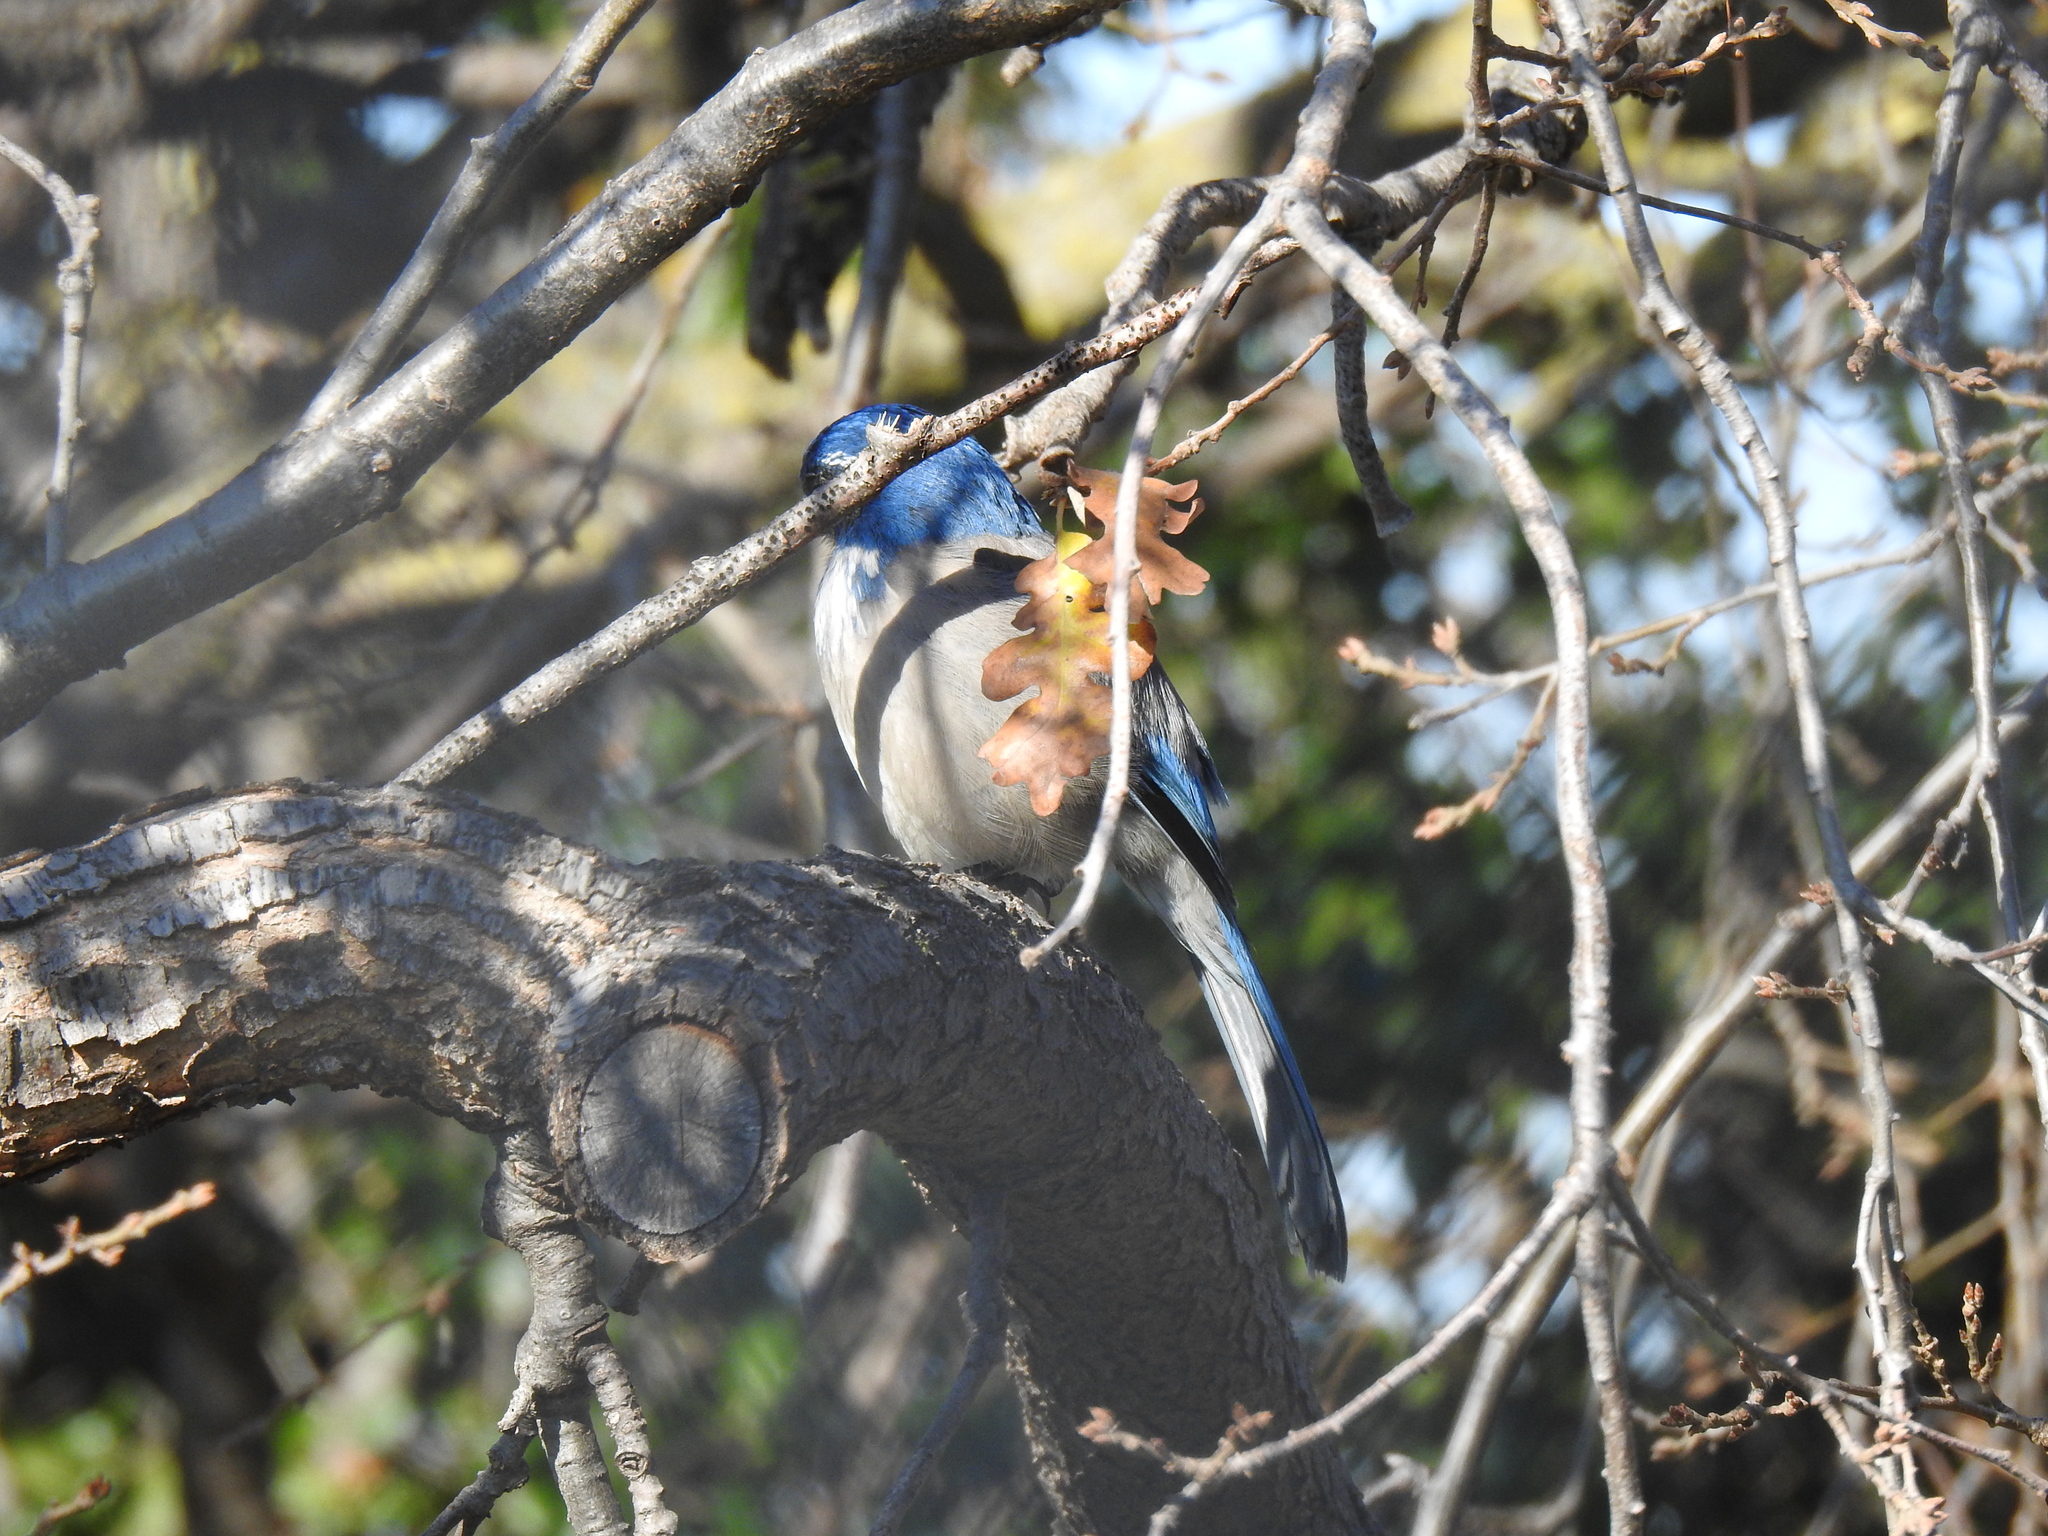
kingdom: Animalia
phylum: Chordata
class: Aves
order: Passeriformes
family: Corvidae
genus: Aphelocoma
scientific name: Aphelocoma californica
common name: California scrub-jay
